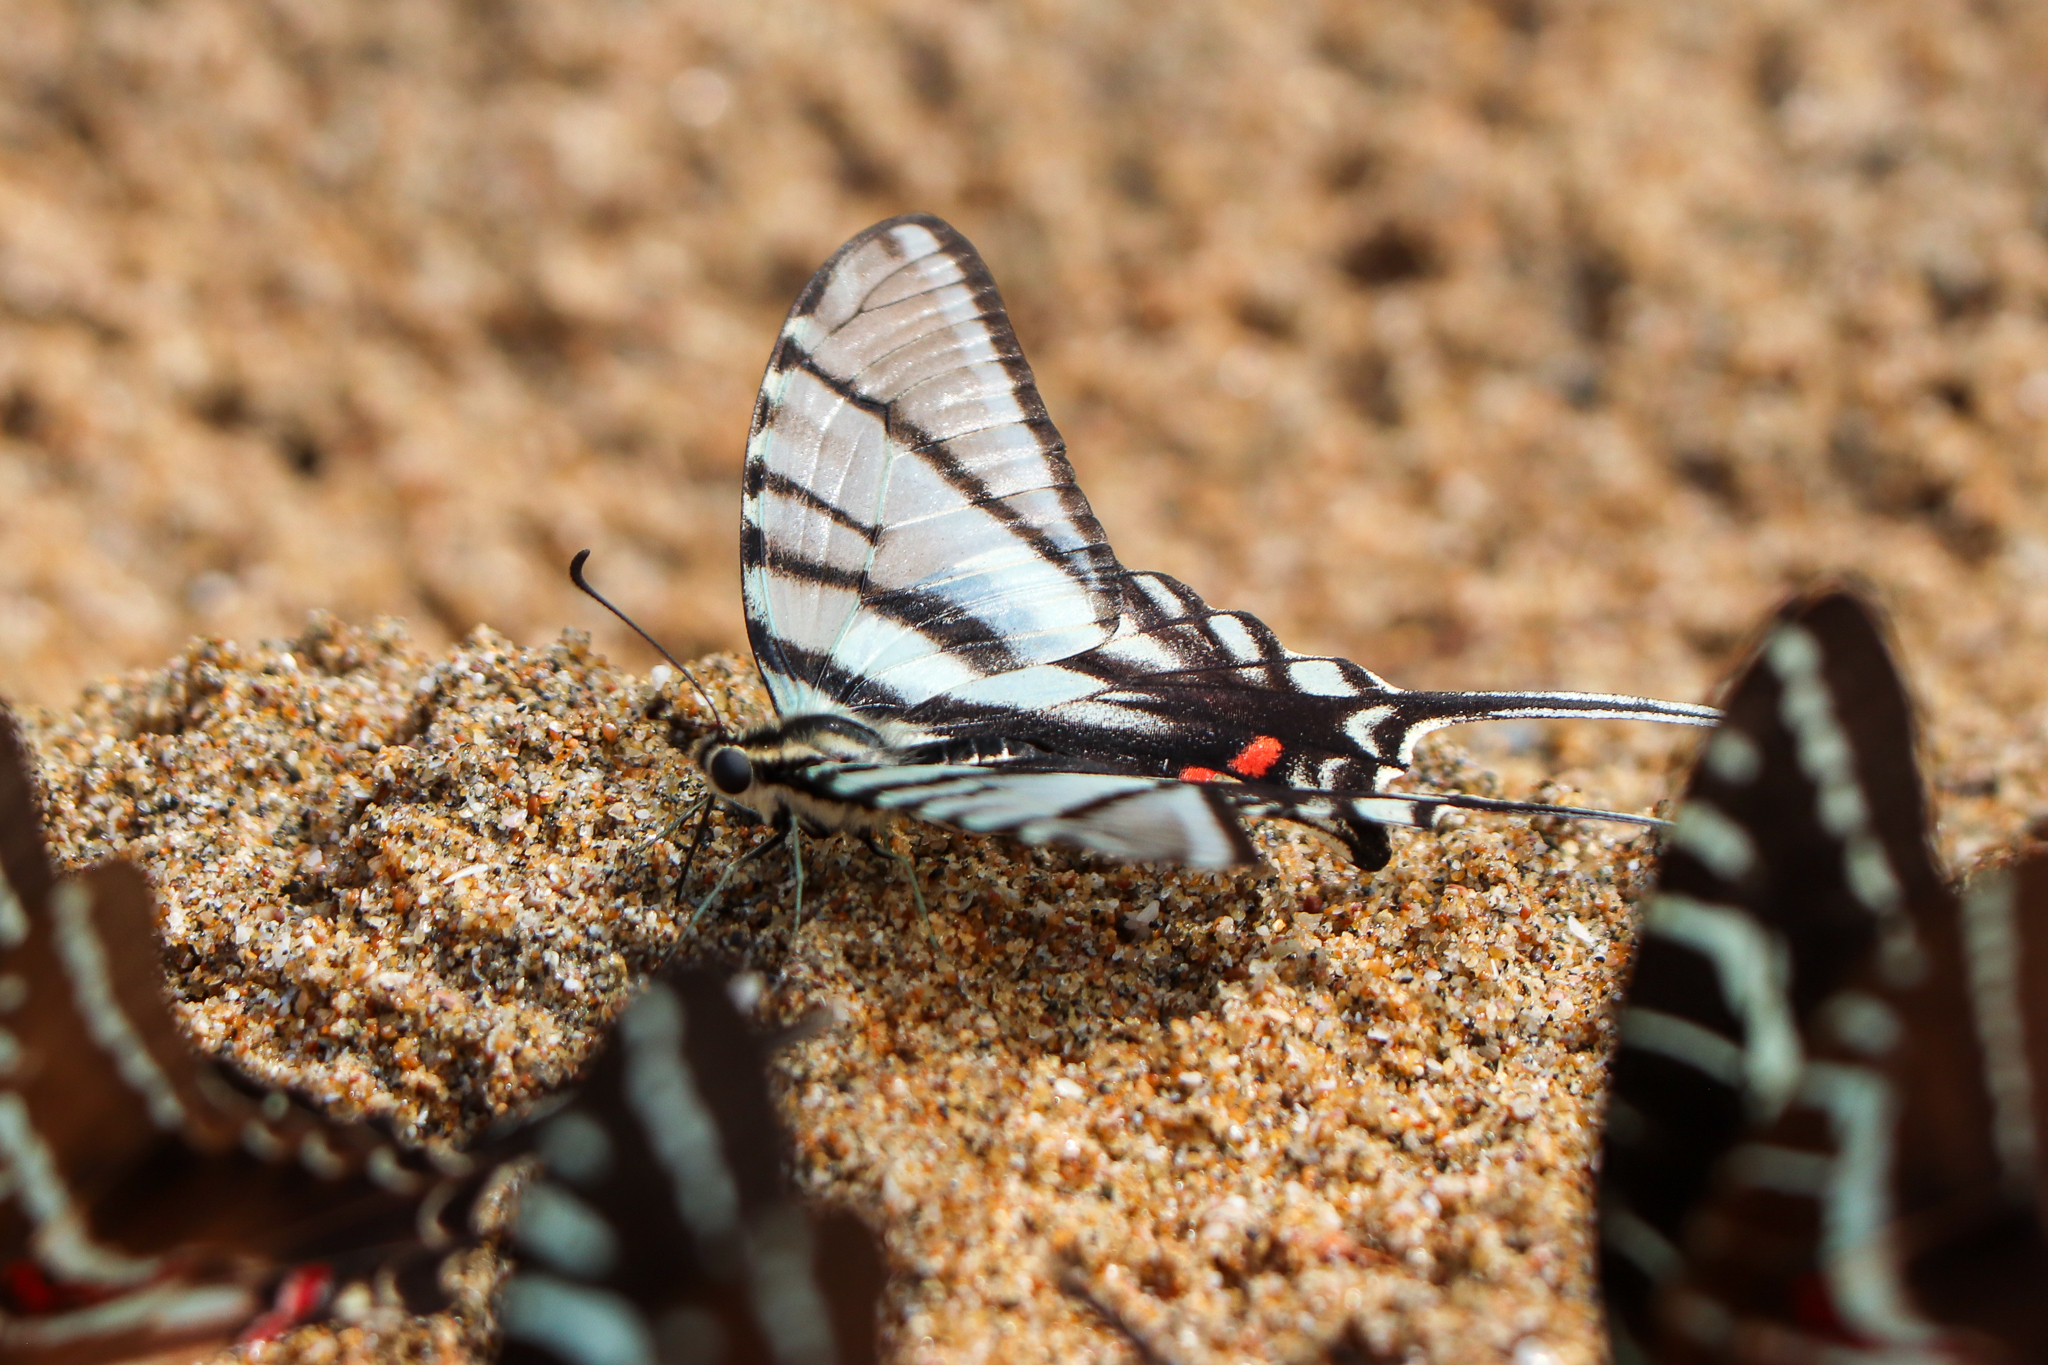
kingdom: Animalia
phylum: Arthropoda
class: Insecta
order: Lepidoptera
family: Papilionidae
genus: Protographium
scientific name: Protographium epidaus
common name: Mexican kite swallowtail
